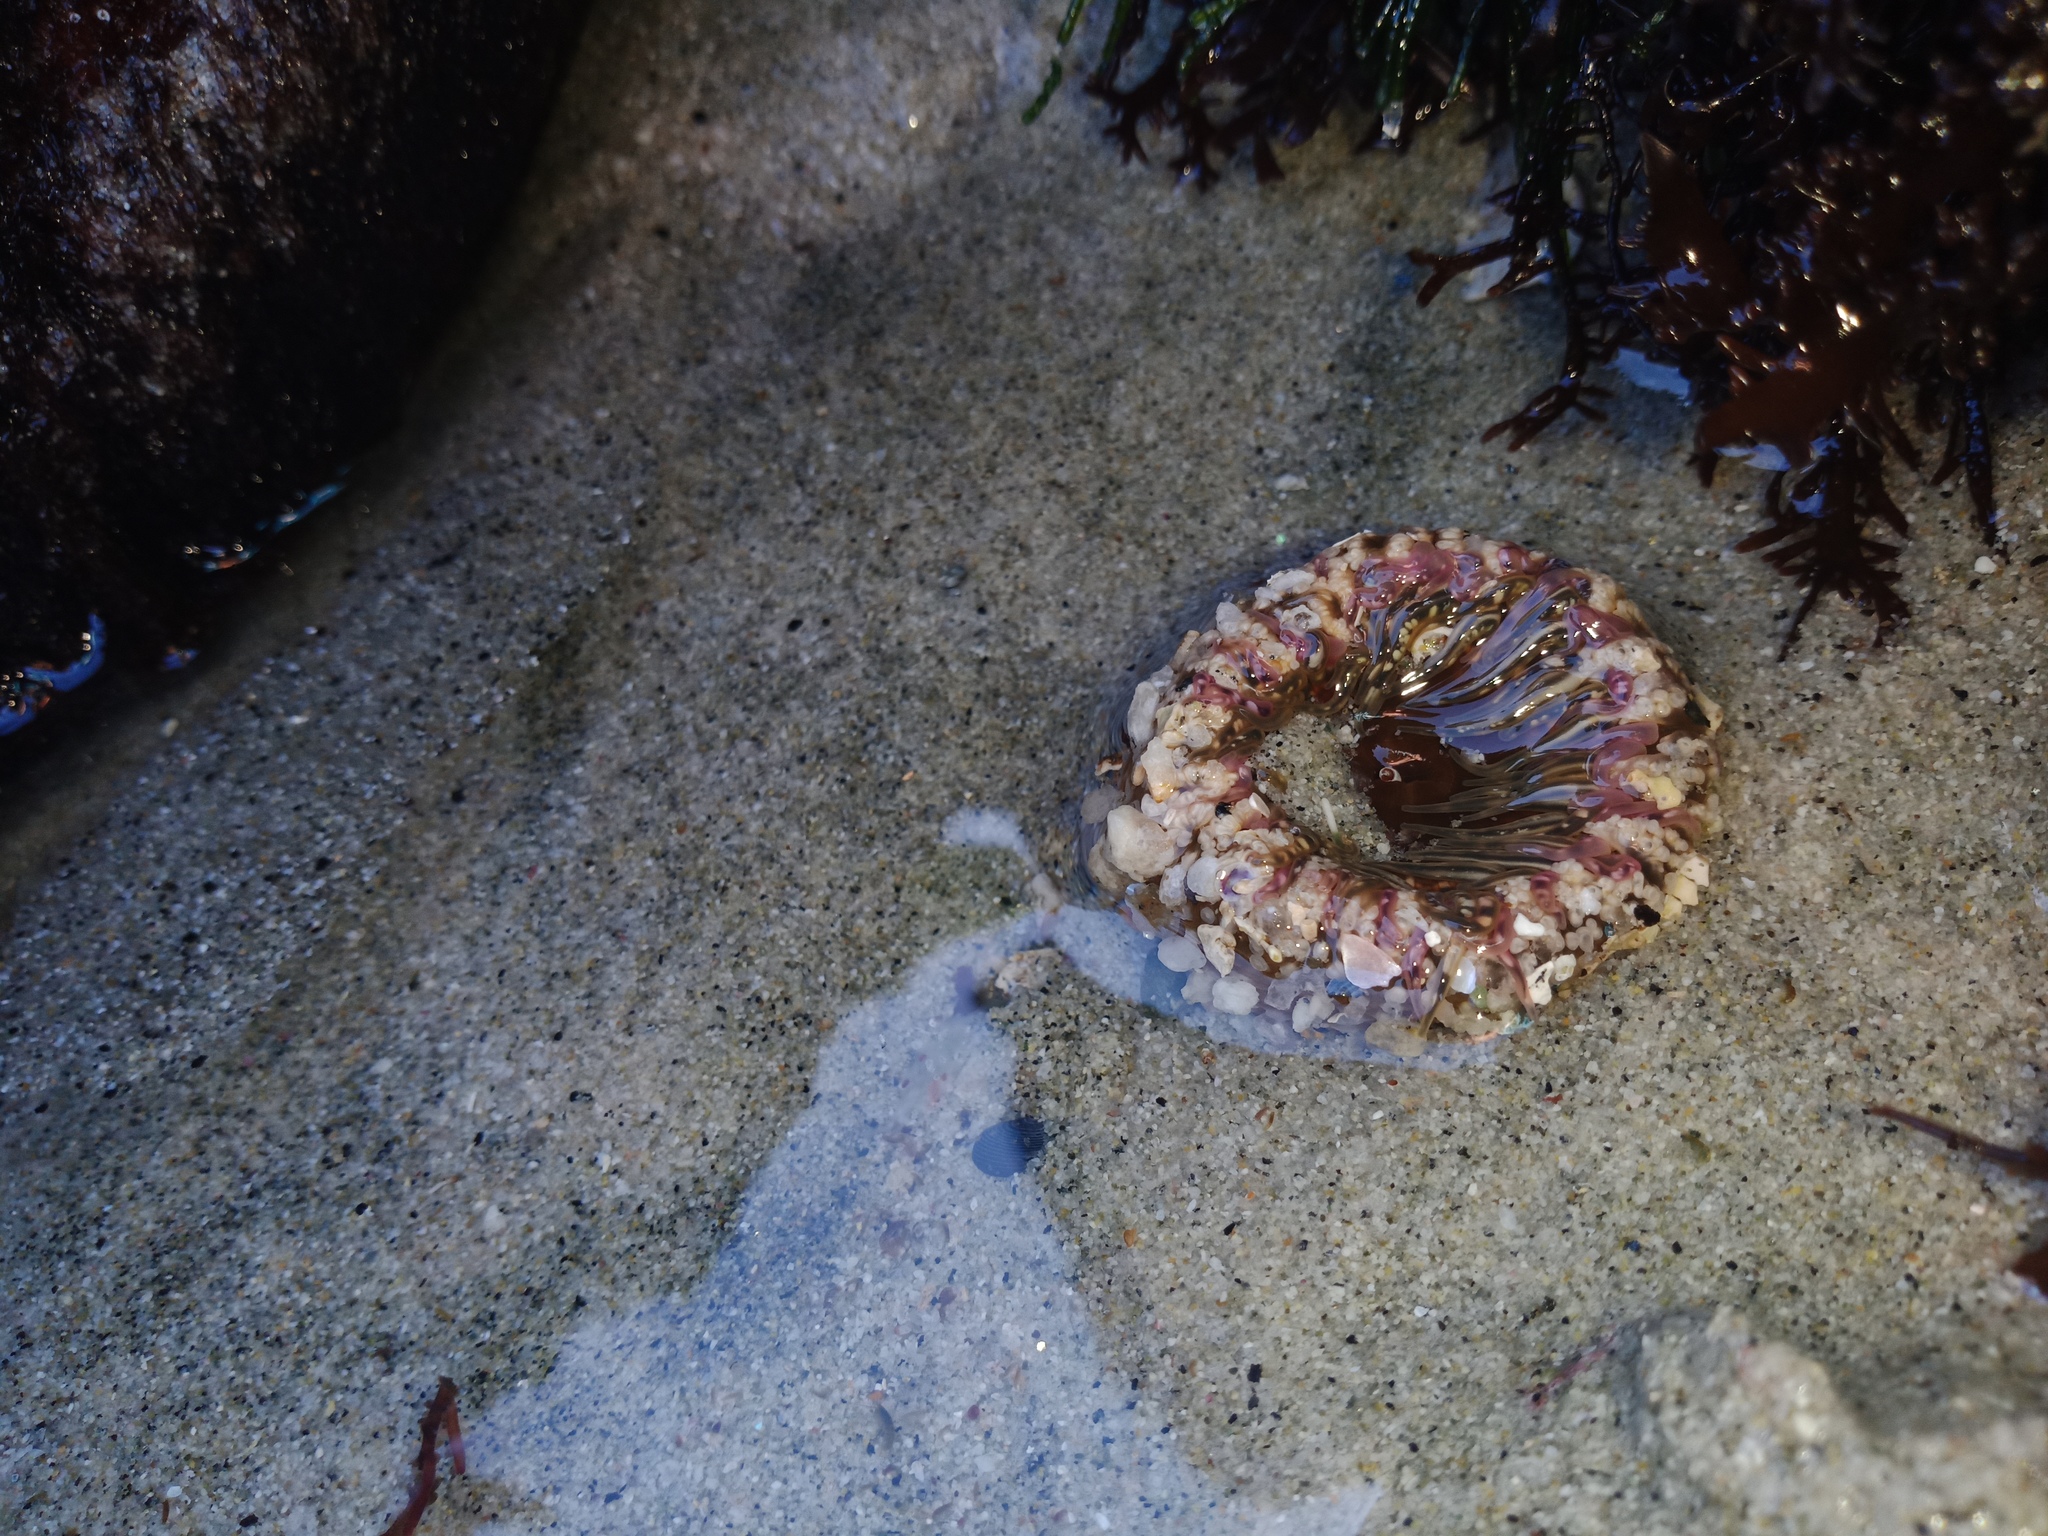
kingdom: Animalia
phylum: Cnidaria
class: Anthozoa
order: Actiniaria
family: Actiniidae
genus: Oulactis
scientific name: Oulactis muscosa
